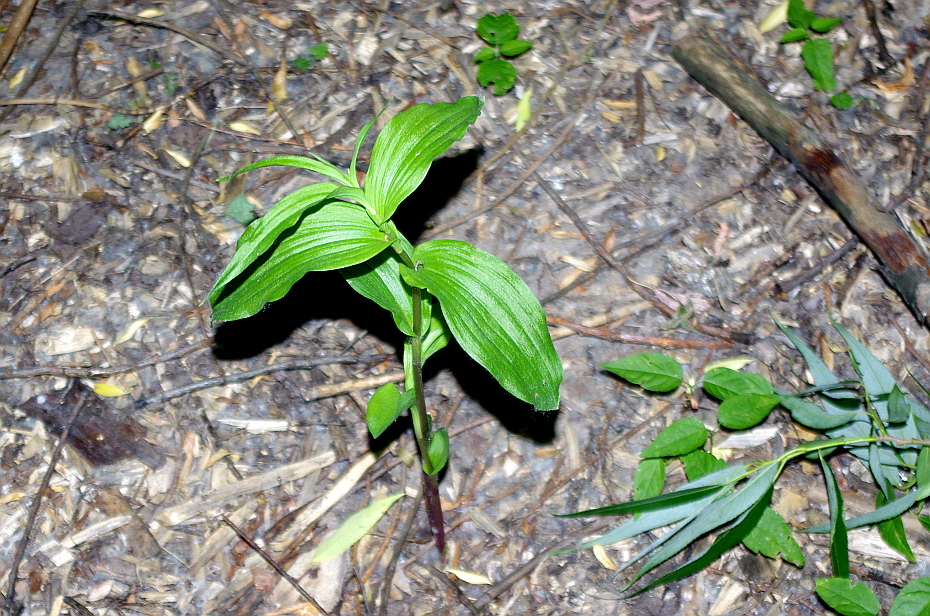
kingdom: Plantae
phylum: Tracheophyta
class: Liliopsida
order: Asparagales
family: Orchidaceae
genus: Epipactis
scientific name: Epipactis helleborine
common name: Broad-leaved helleborine
